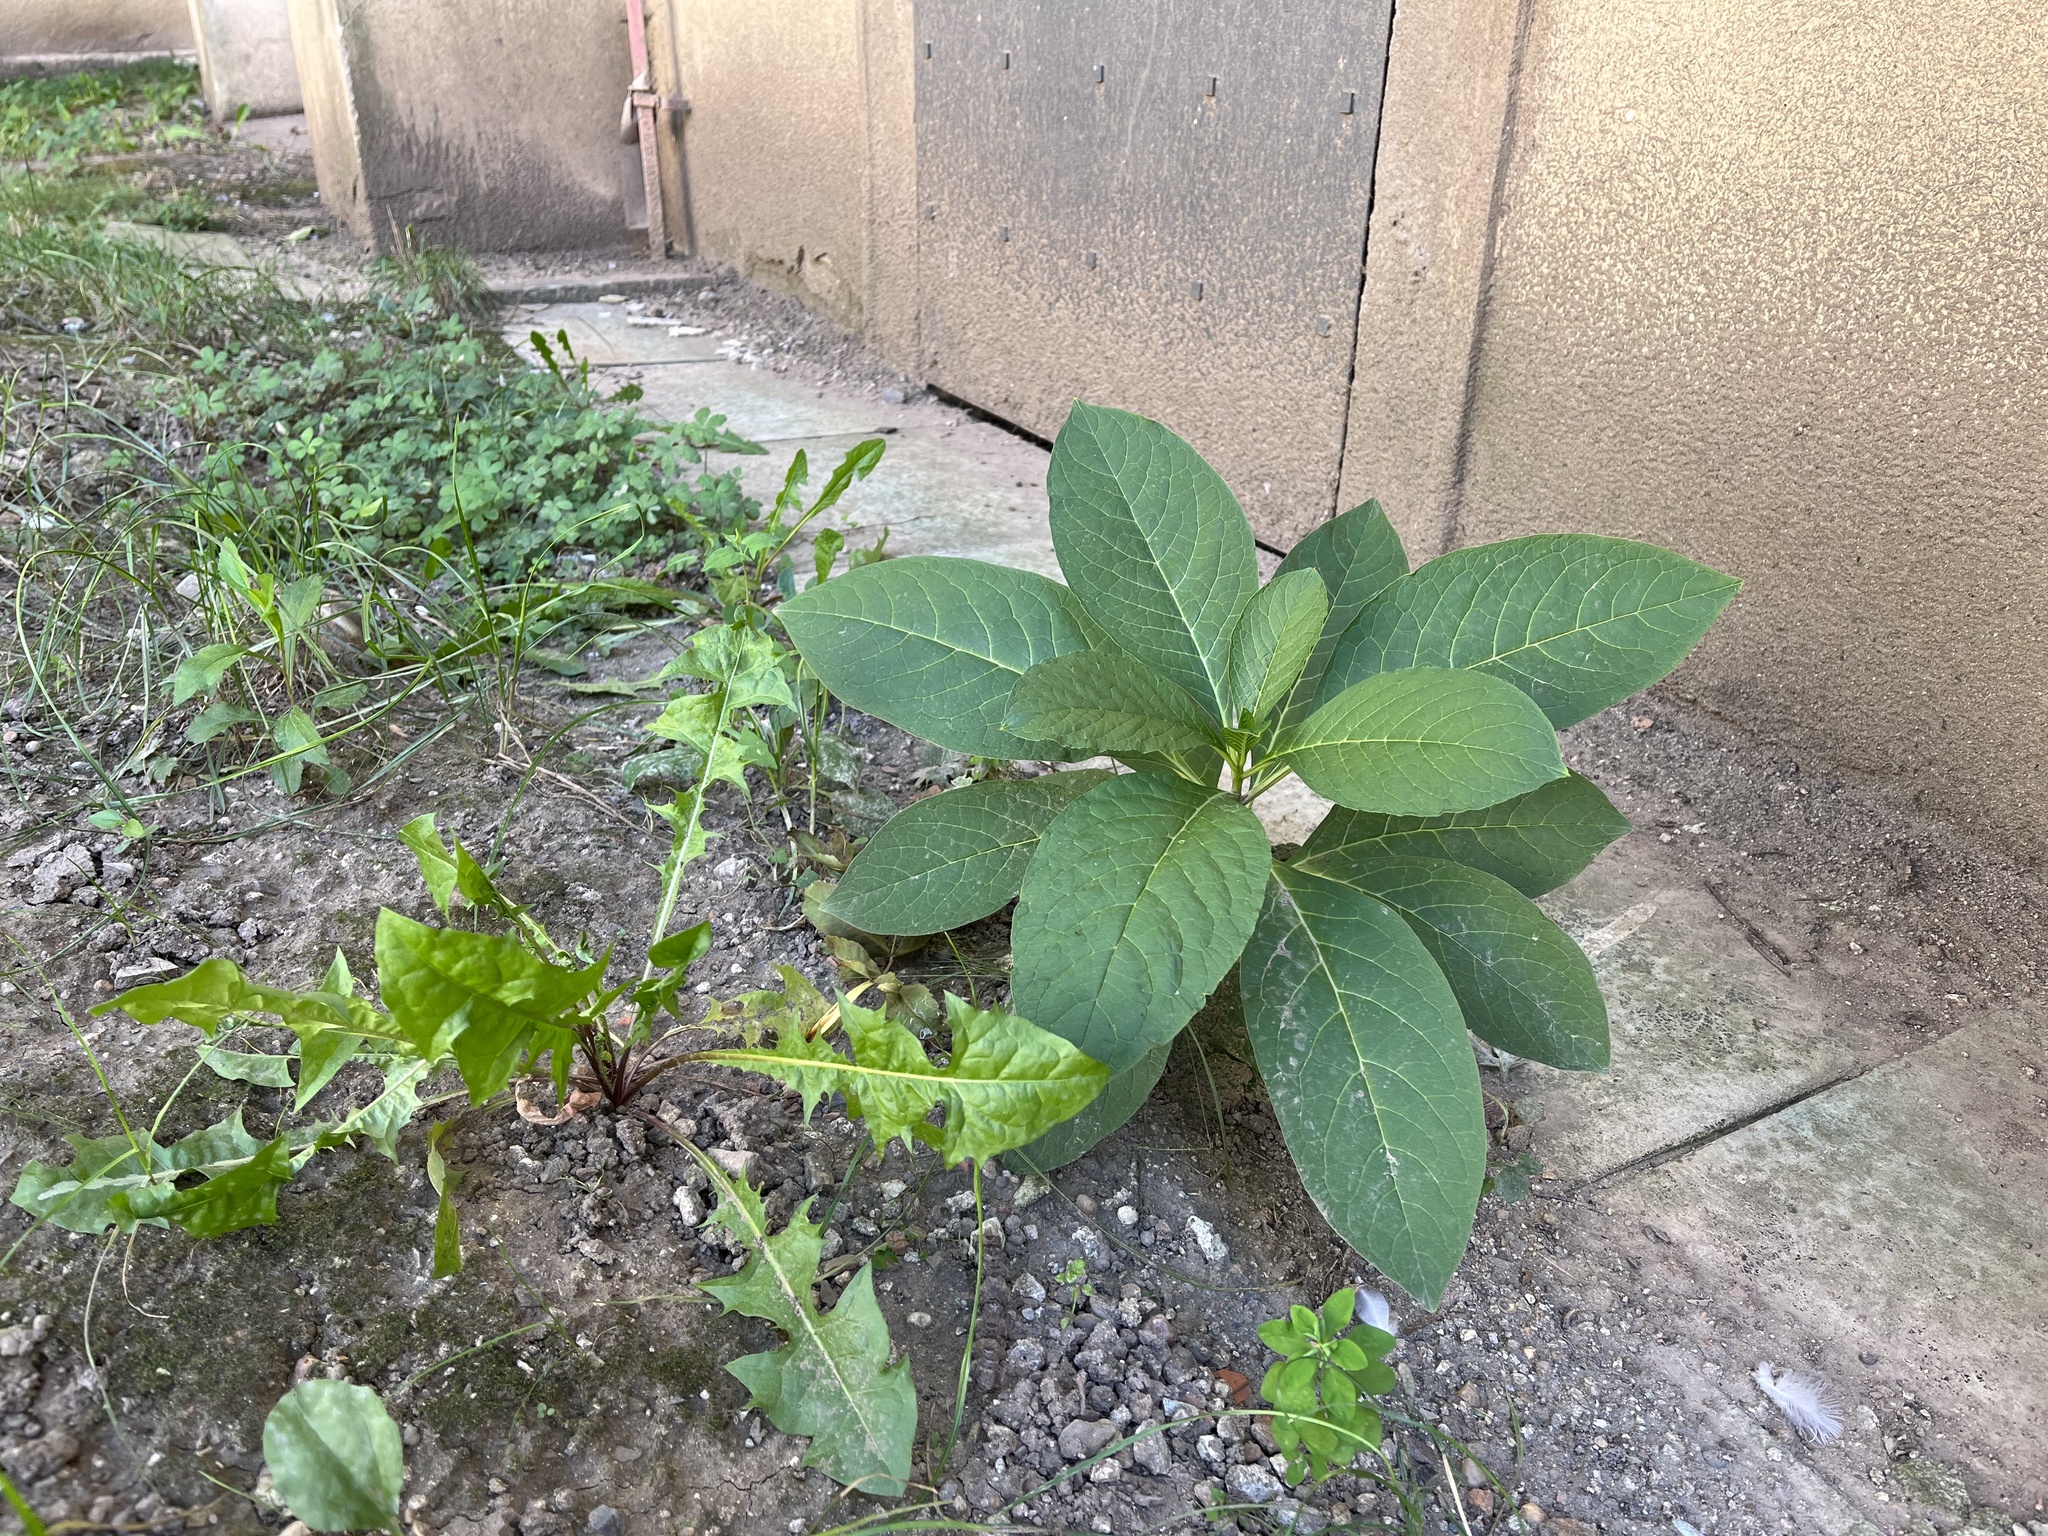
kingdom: Plantae
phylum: Tracheophyta
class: Magnoliopsida
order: Caryophyllales
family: Phytolaccaceae
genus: Phytolacca
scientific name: Phytolacca acinosa
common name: Indian pokeweed
